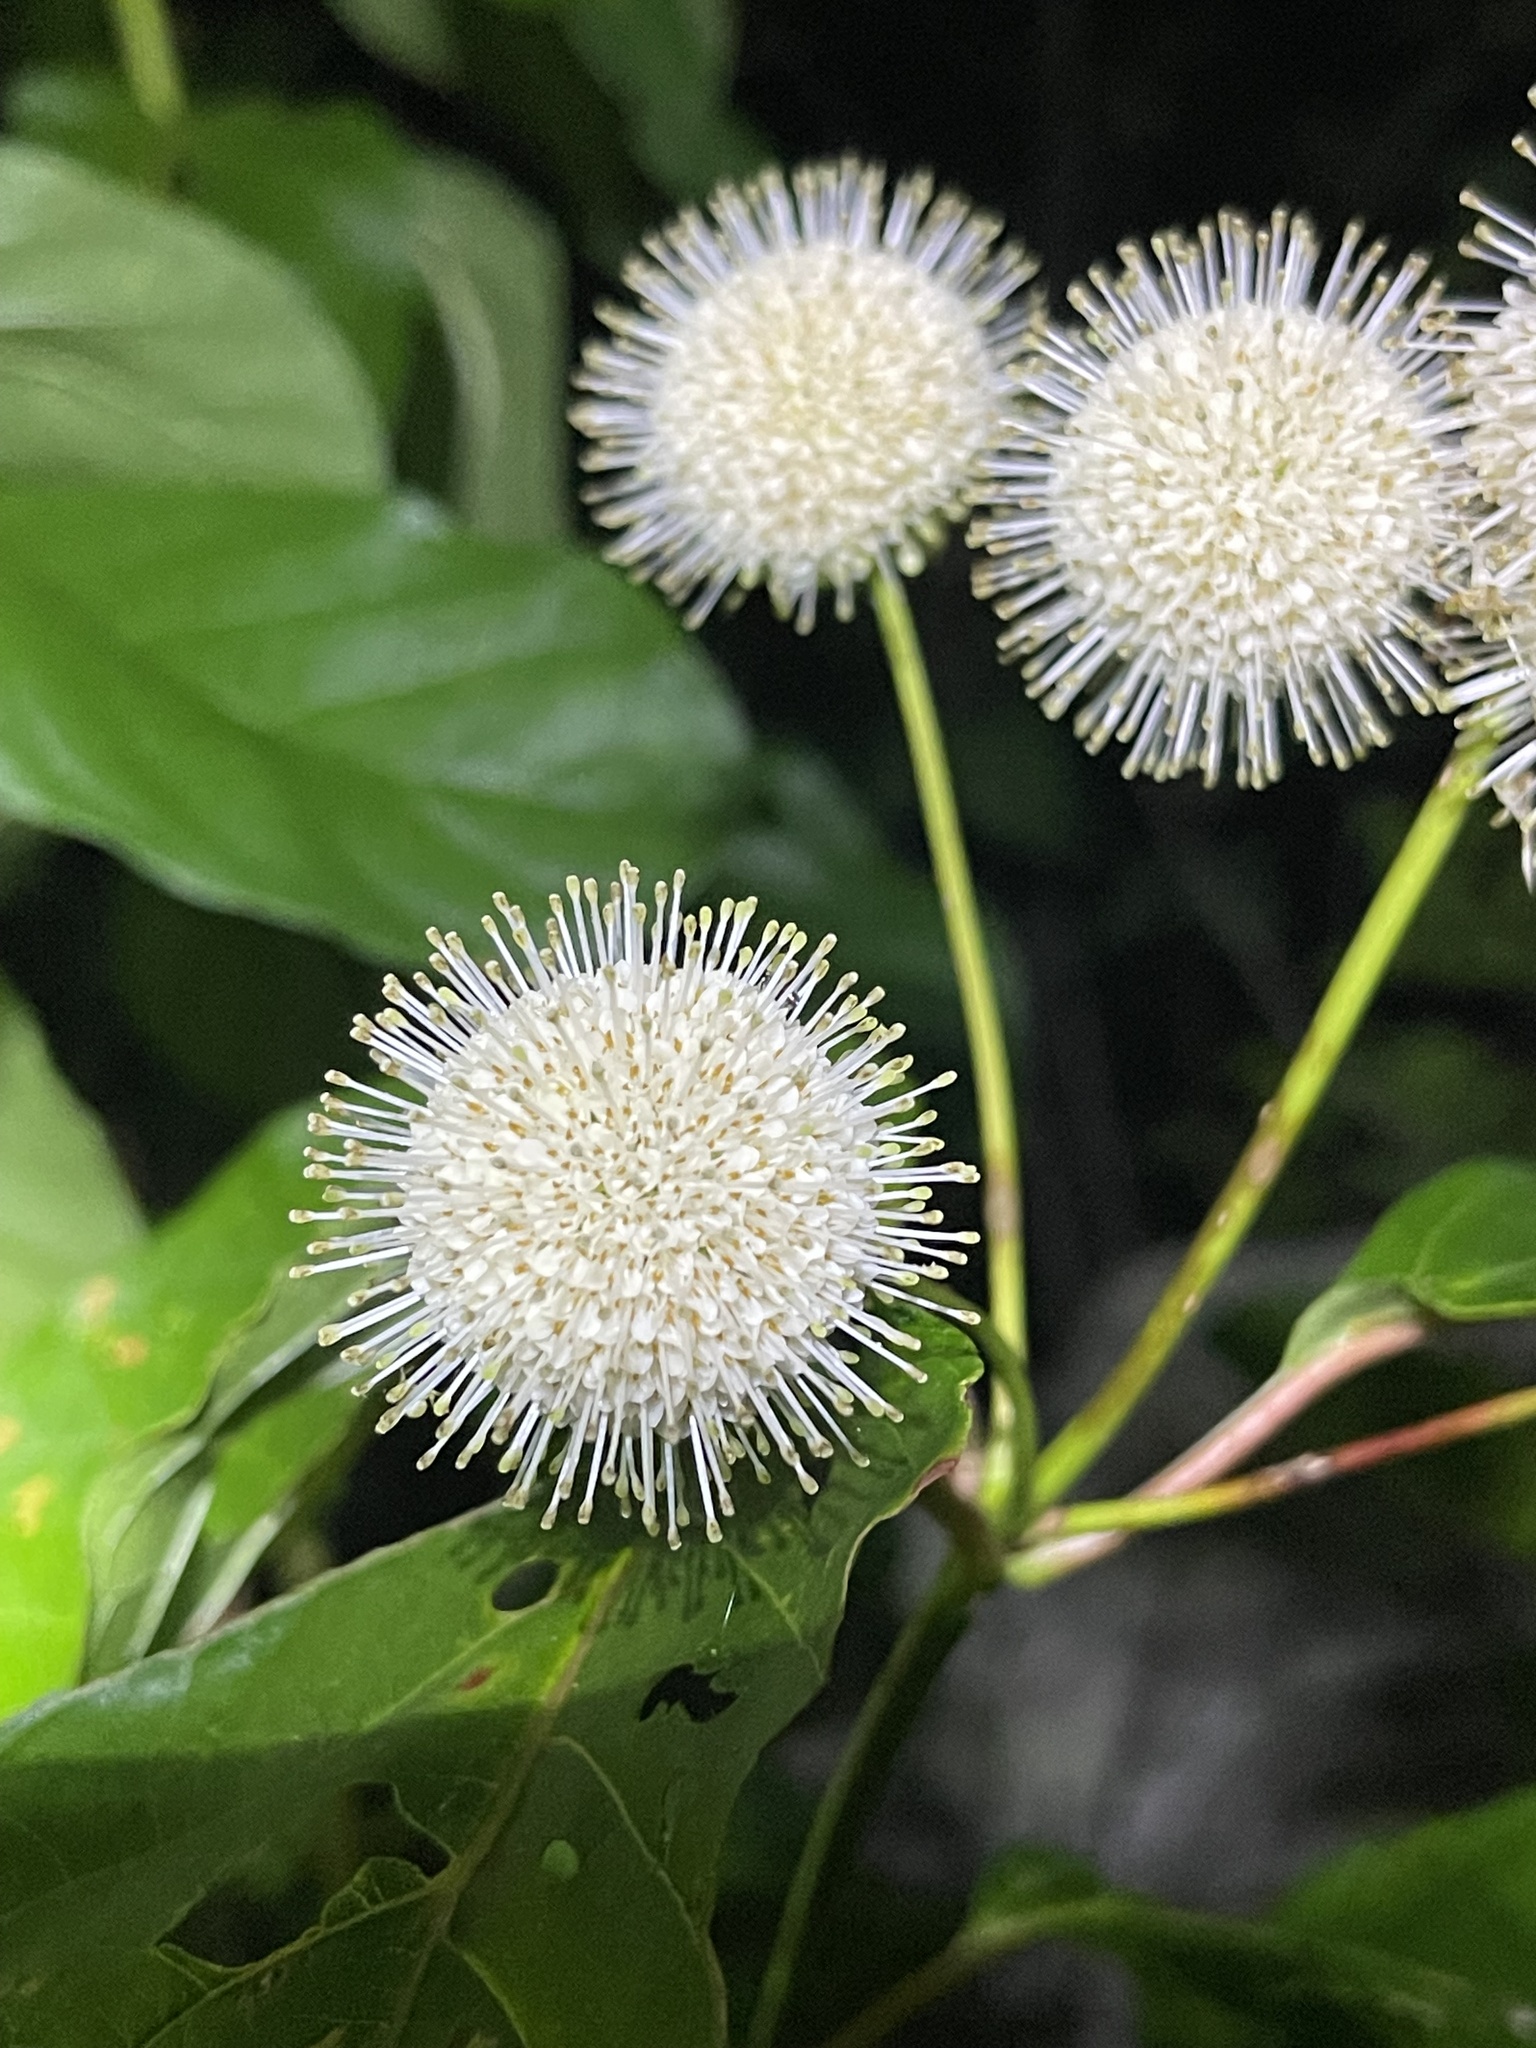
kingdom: Plantae
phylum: Tracheophyta
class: Magnoliopsida
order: Gentianales
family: Rubiaceae
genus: Cephalanthus
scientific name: Cephalanthus occidentalis
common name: Button-willow
